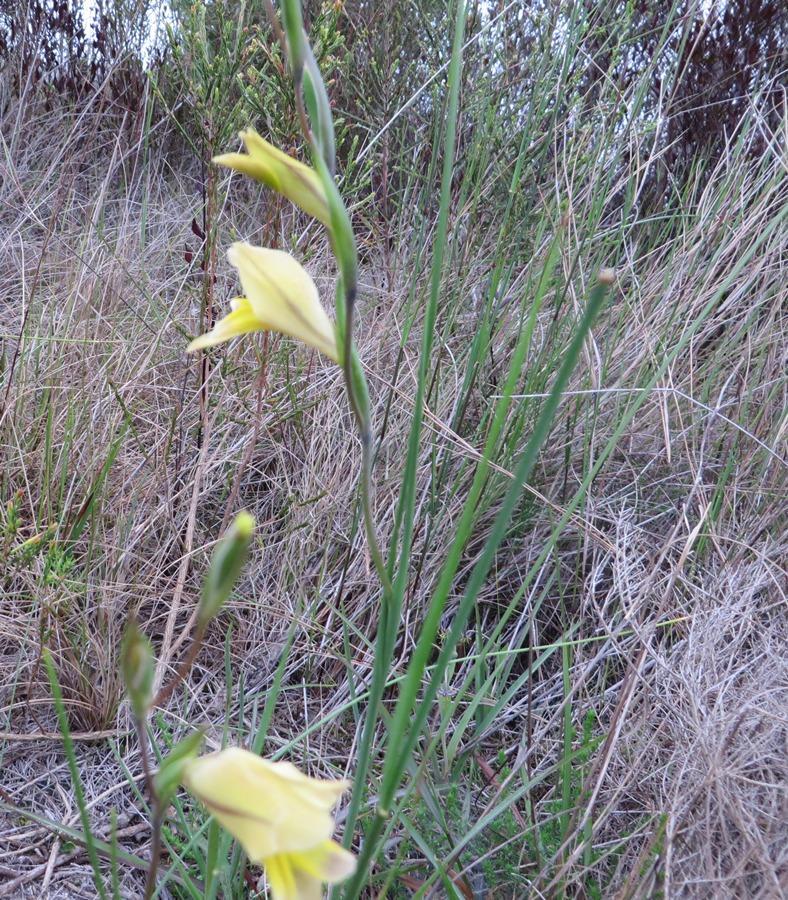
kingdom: Plantae
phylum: Tracheophyta
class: Liliopsida
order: Asparagales
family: Iridaceae
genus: Gladiolus
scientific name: Gladiolus carinatus
